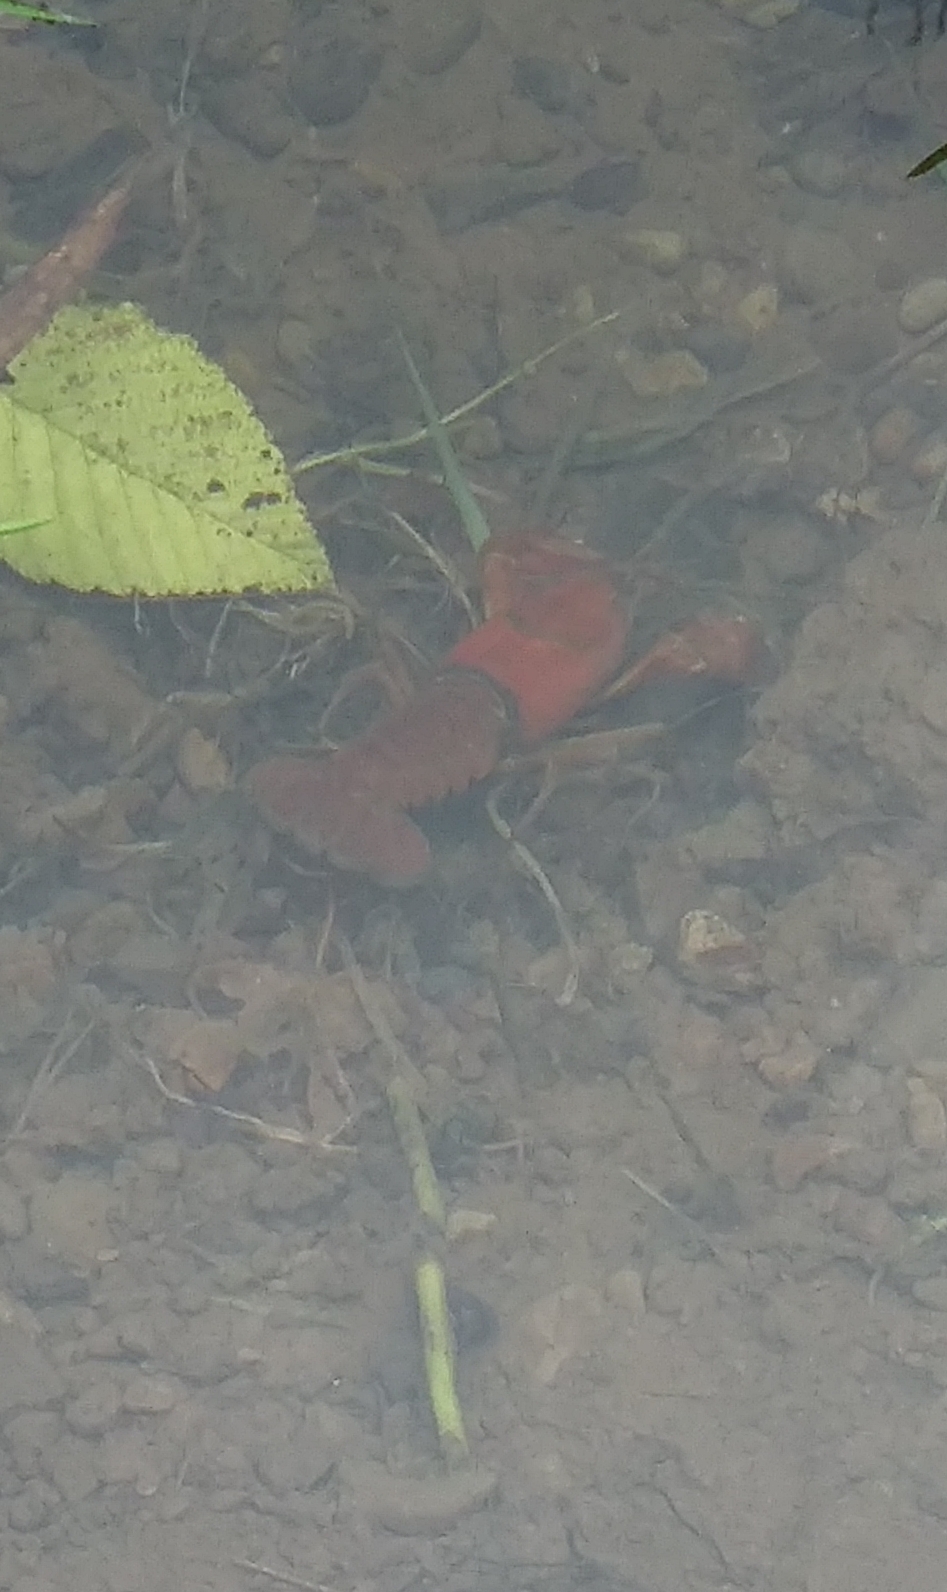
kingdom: Animalia
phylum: Arthropoda
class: Malacostraca
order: Decapoda
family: Astacidae
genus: Pacifastacus
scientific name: Pacifastacus leniusculus
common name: Signal crayfish
